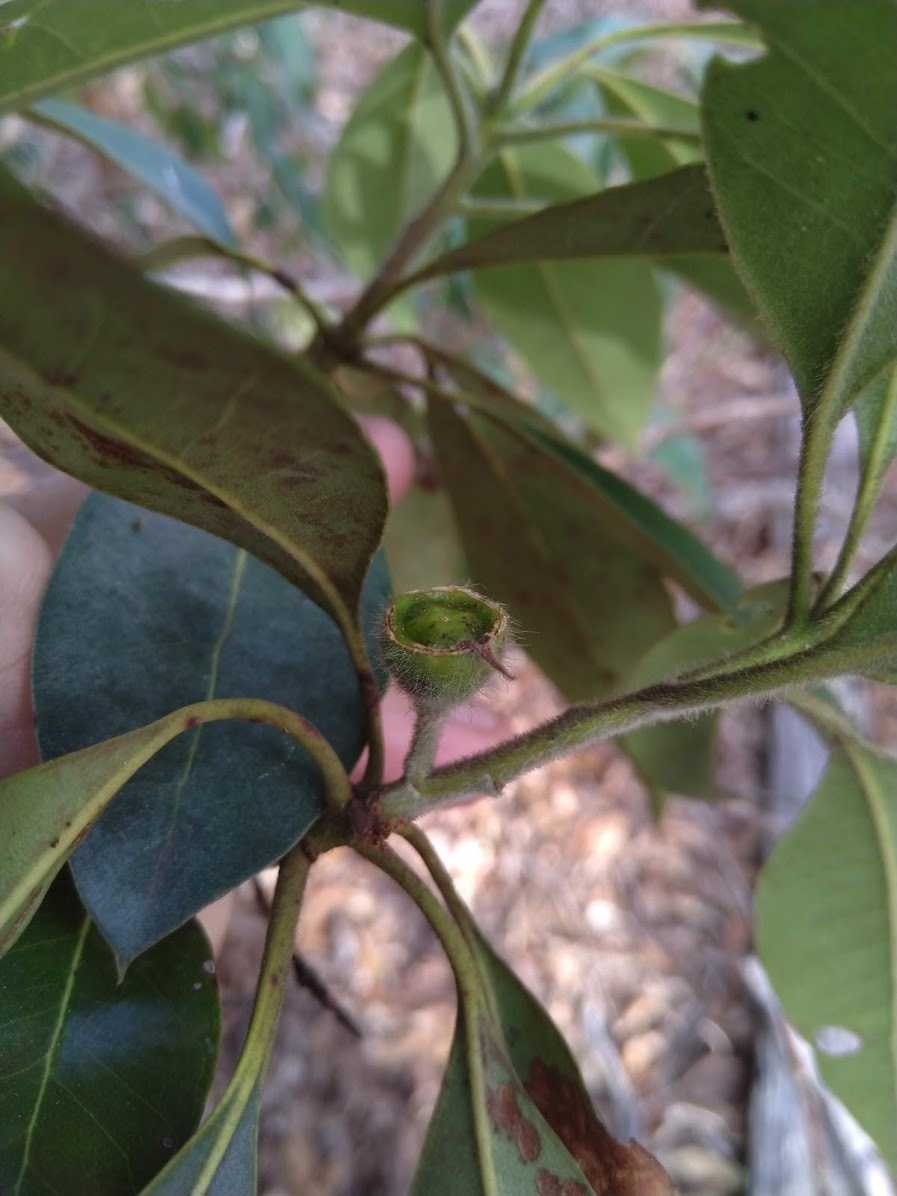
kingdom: Plantae
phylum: Tracheophyta
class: Magnoliopsida
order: Myrtales
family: Myrtaceae
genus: Lophostemon
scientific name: Lophostemon confertus
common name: Brisbane box
